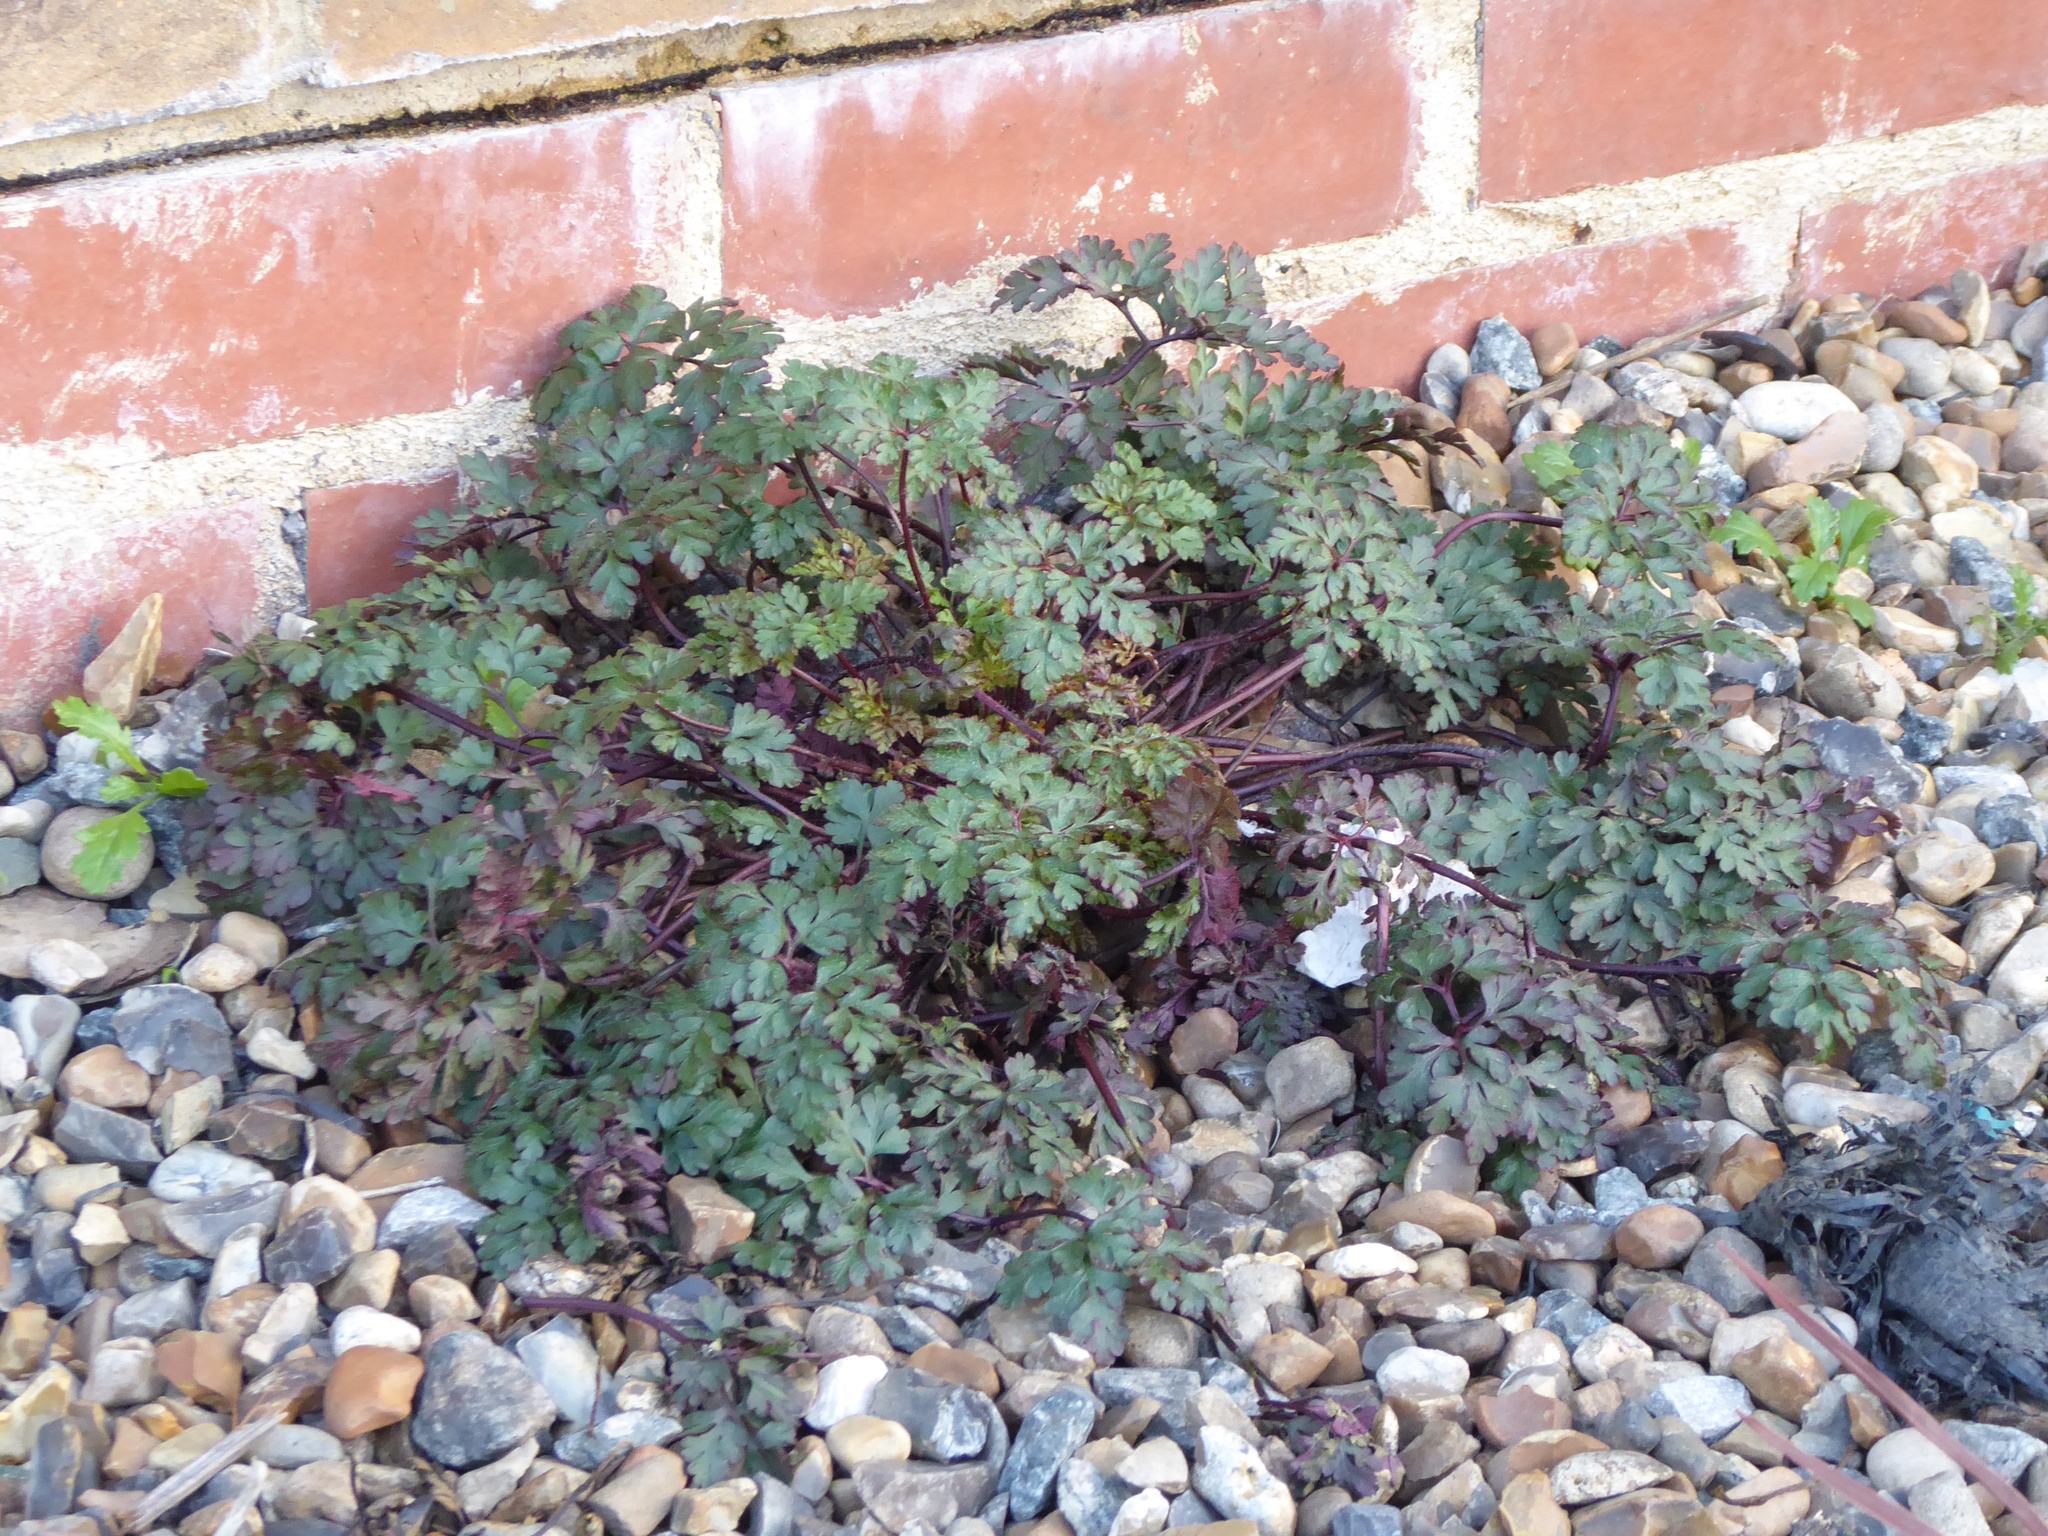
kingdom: Plantae
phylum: Tracheophyta
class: Magnoliopsida
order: Geraniales
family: Geraniaceae
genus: Geranium
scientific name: Geranium robertianum
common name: Herb-robert
